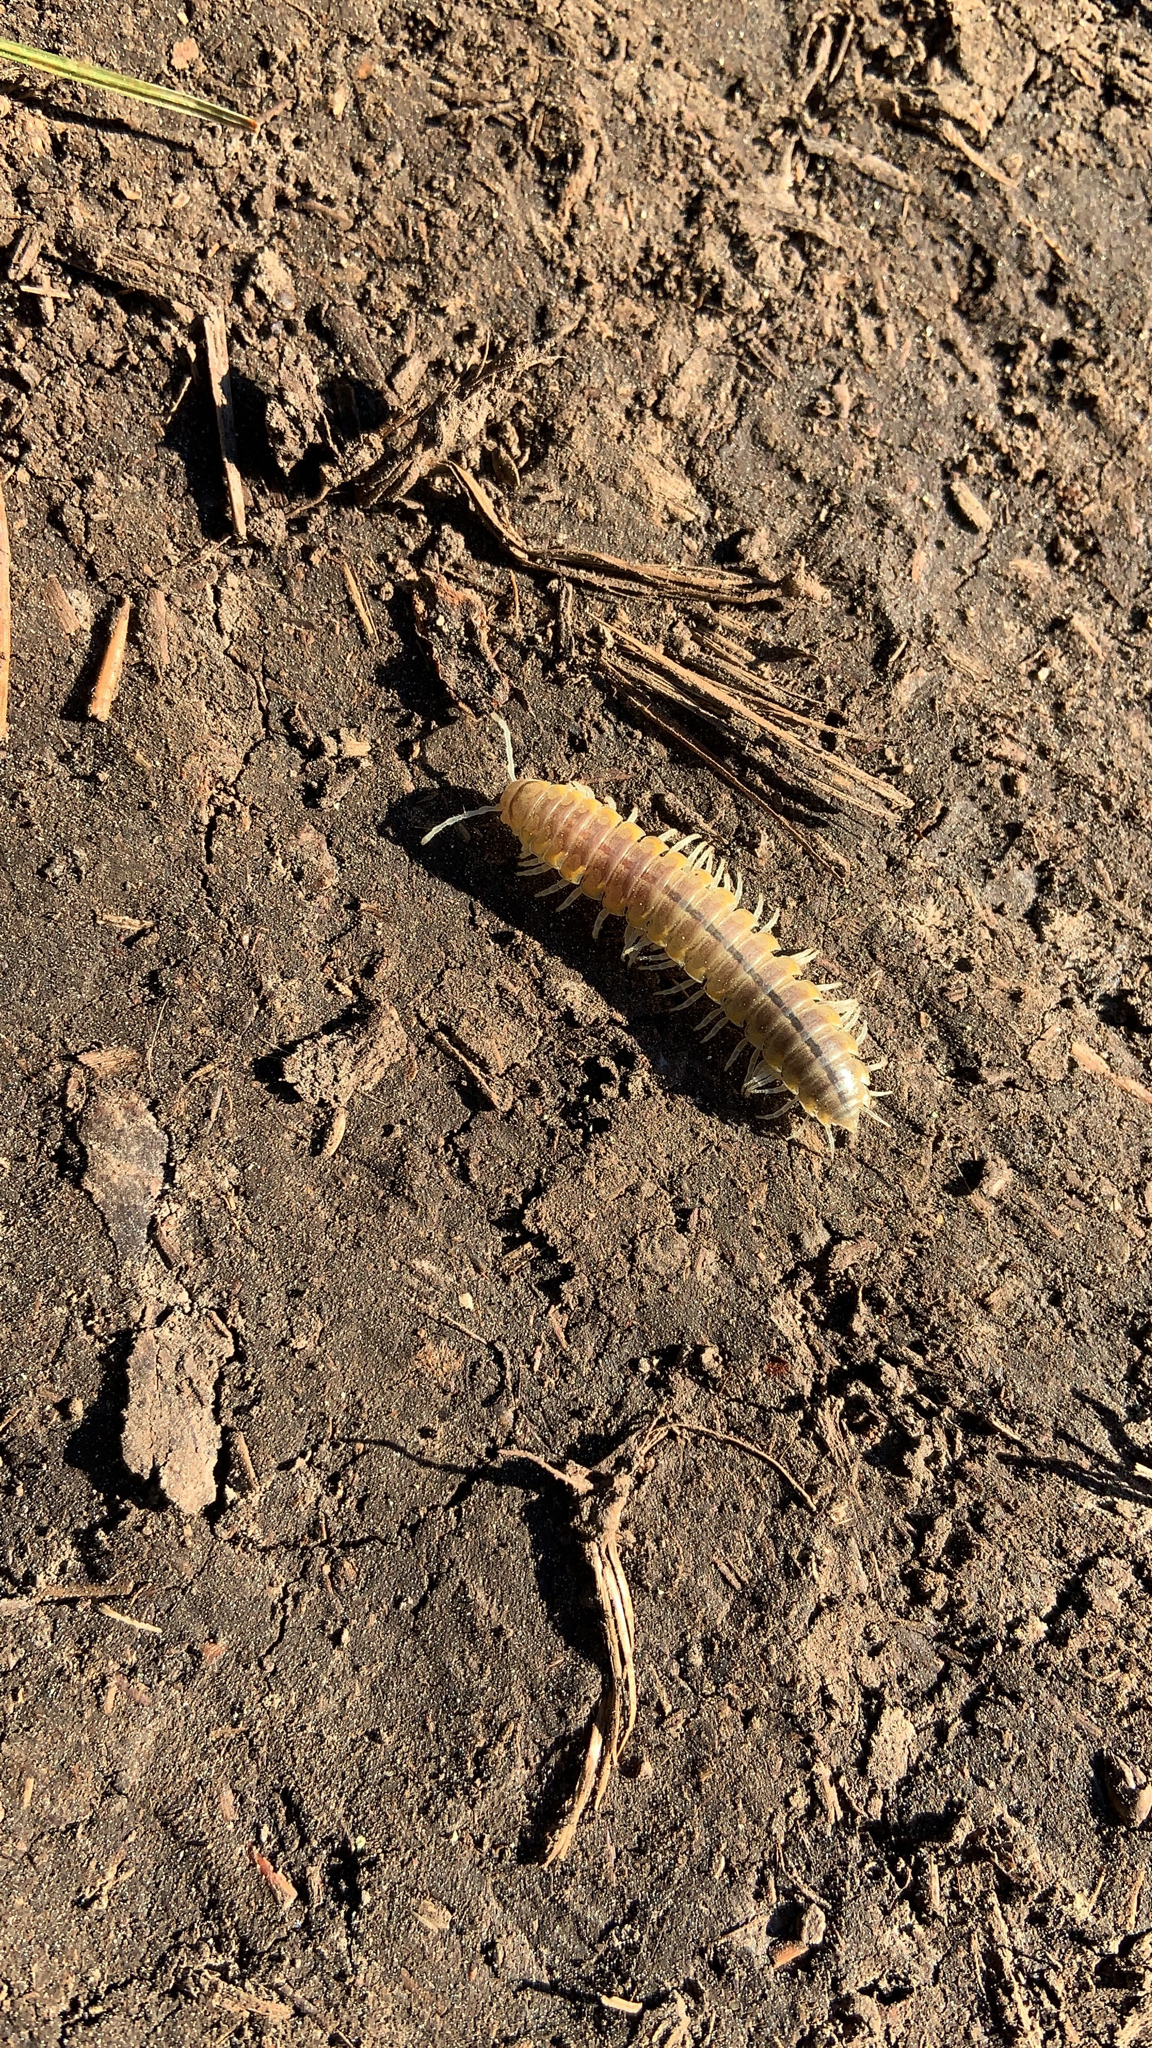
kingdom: Animalia
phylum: Arthropoda
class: Diplopoda
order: Polydesmida
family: Xystodesmidae
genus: Xystocheir
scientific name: Xystocheir dissecta
